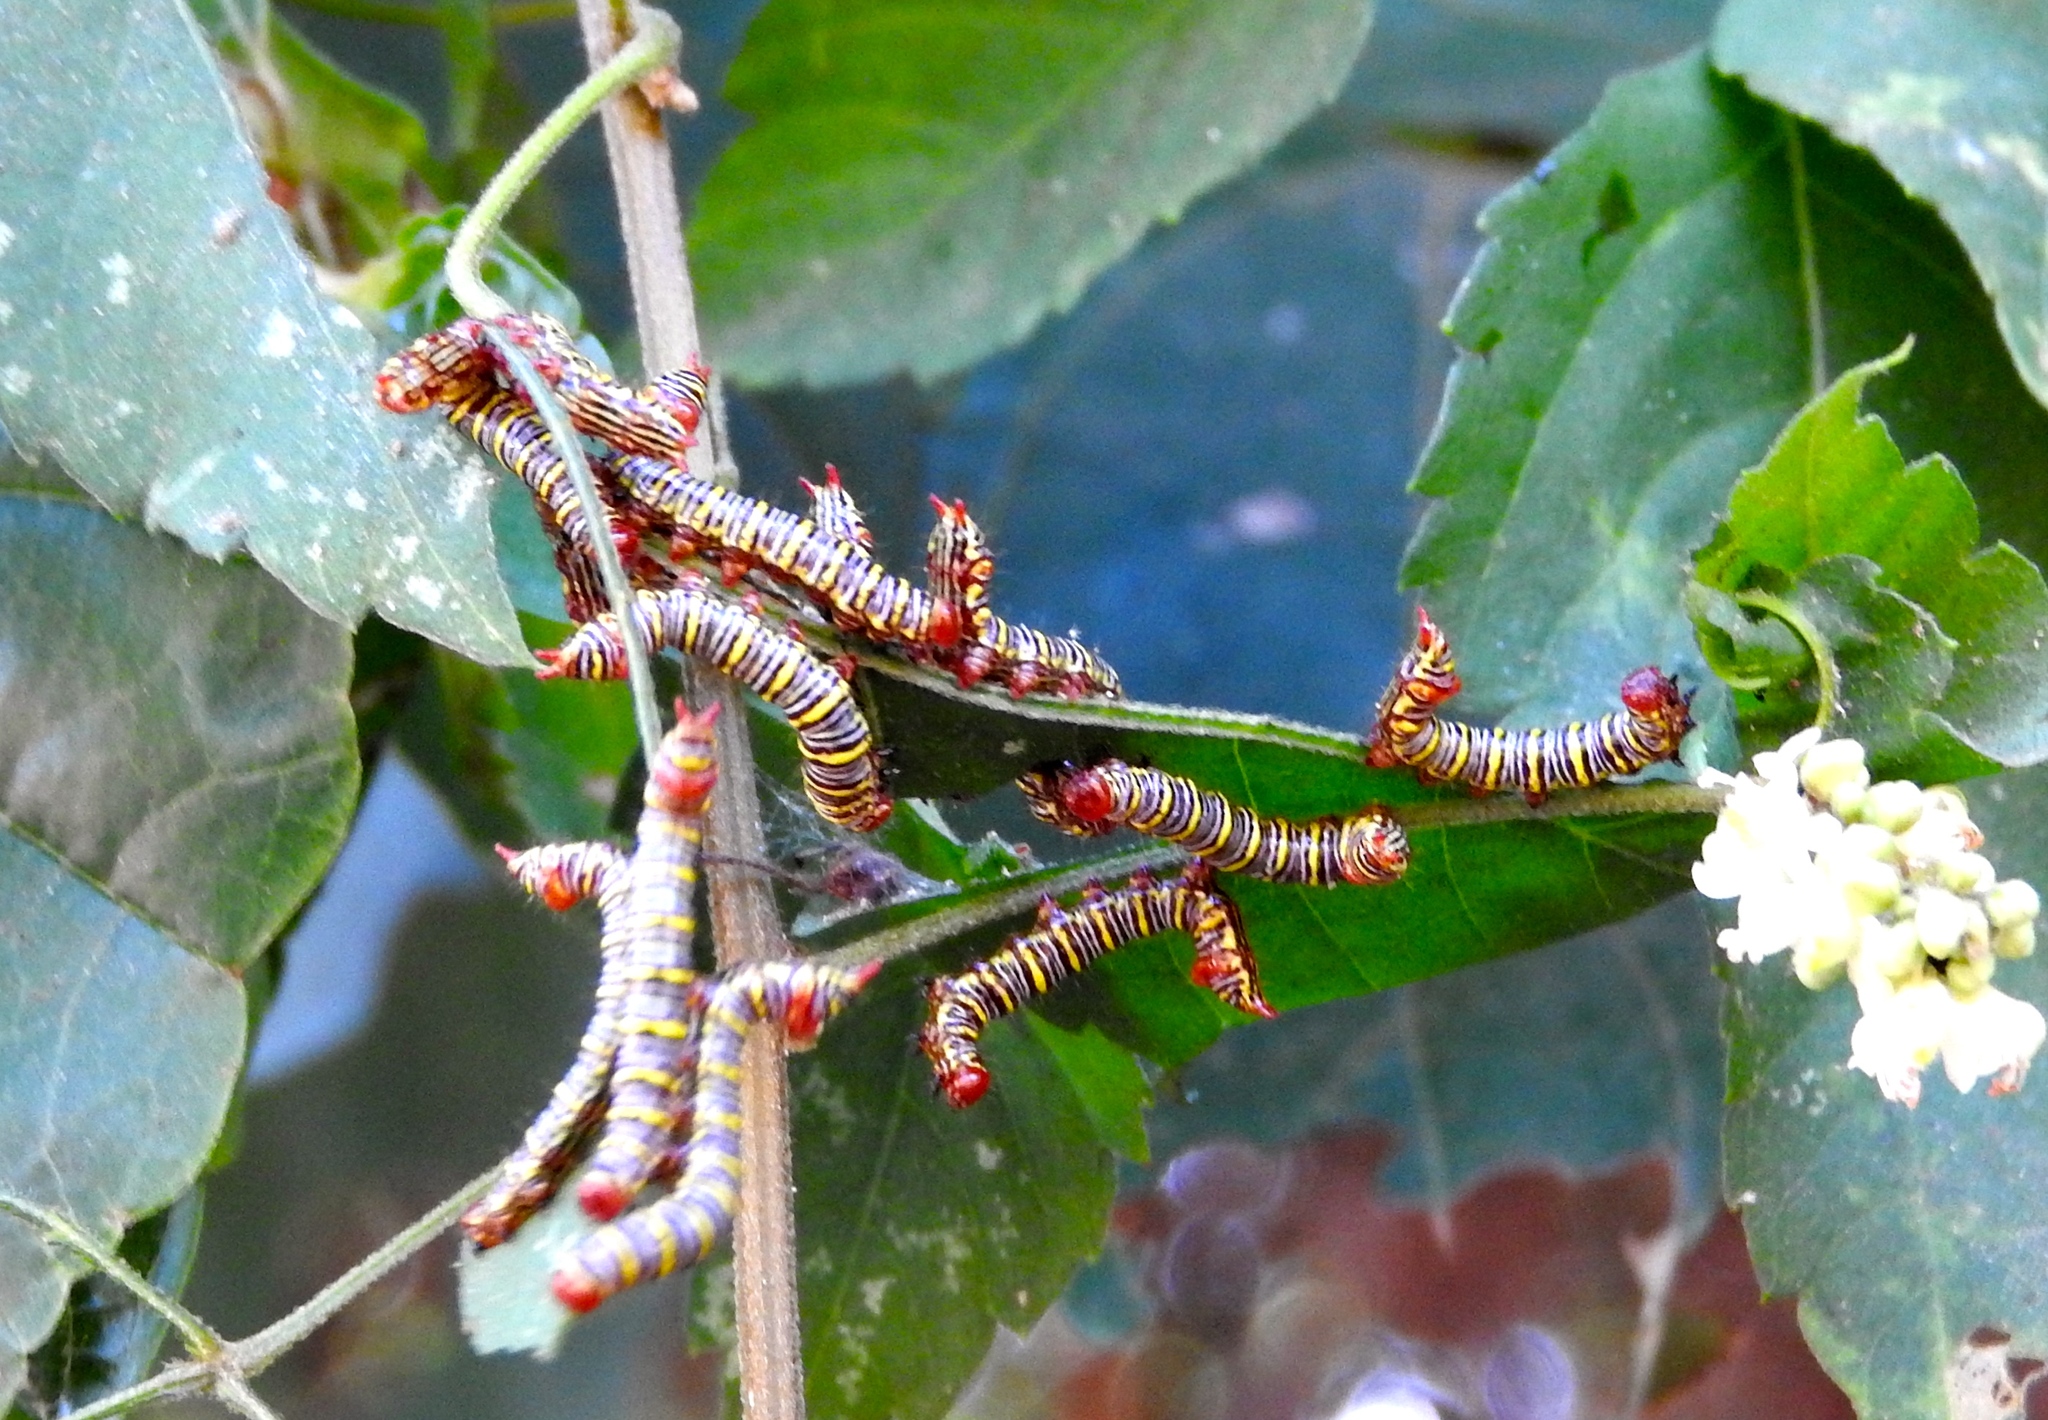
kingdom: Animalia
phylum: Arthropoda
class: Insecta
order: Lepidoptera
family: Notodontidae
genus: Didugua
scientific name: Didugua argentilinea
